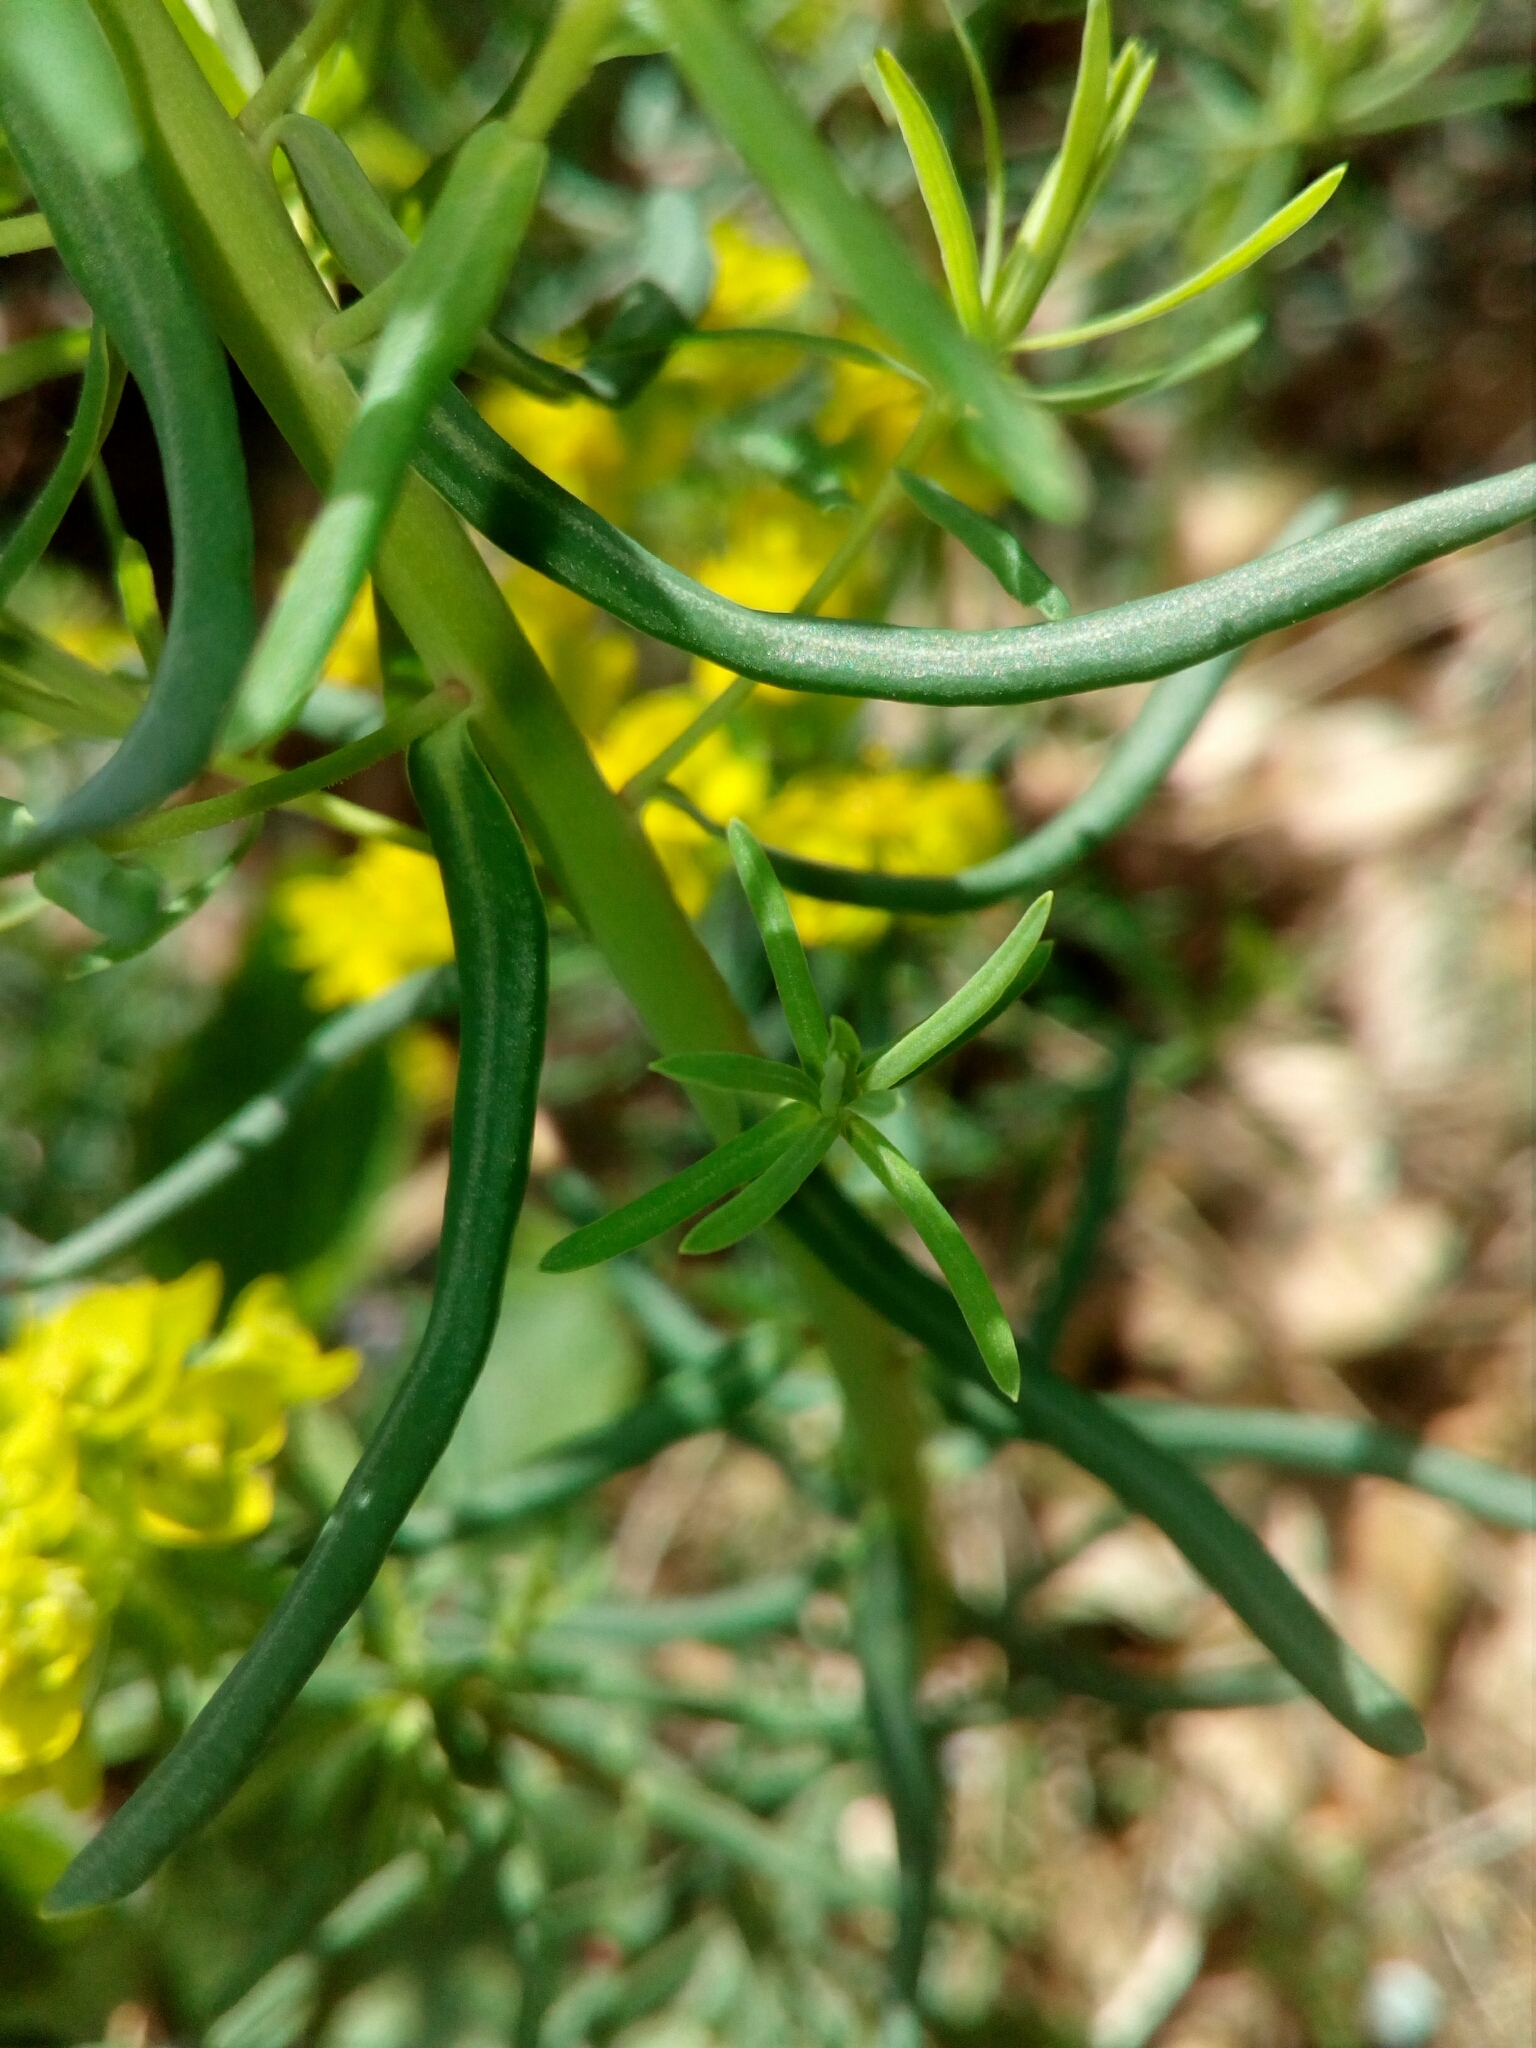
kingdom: Plantae
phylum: Tracheophyta
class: Magnoliopsida
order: Malpighiales
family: Euphorbiaceae
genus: Euphorbia
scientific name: Euphorbia cyparissias
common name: Cypress spurge
